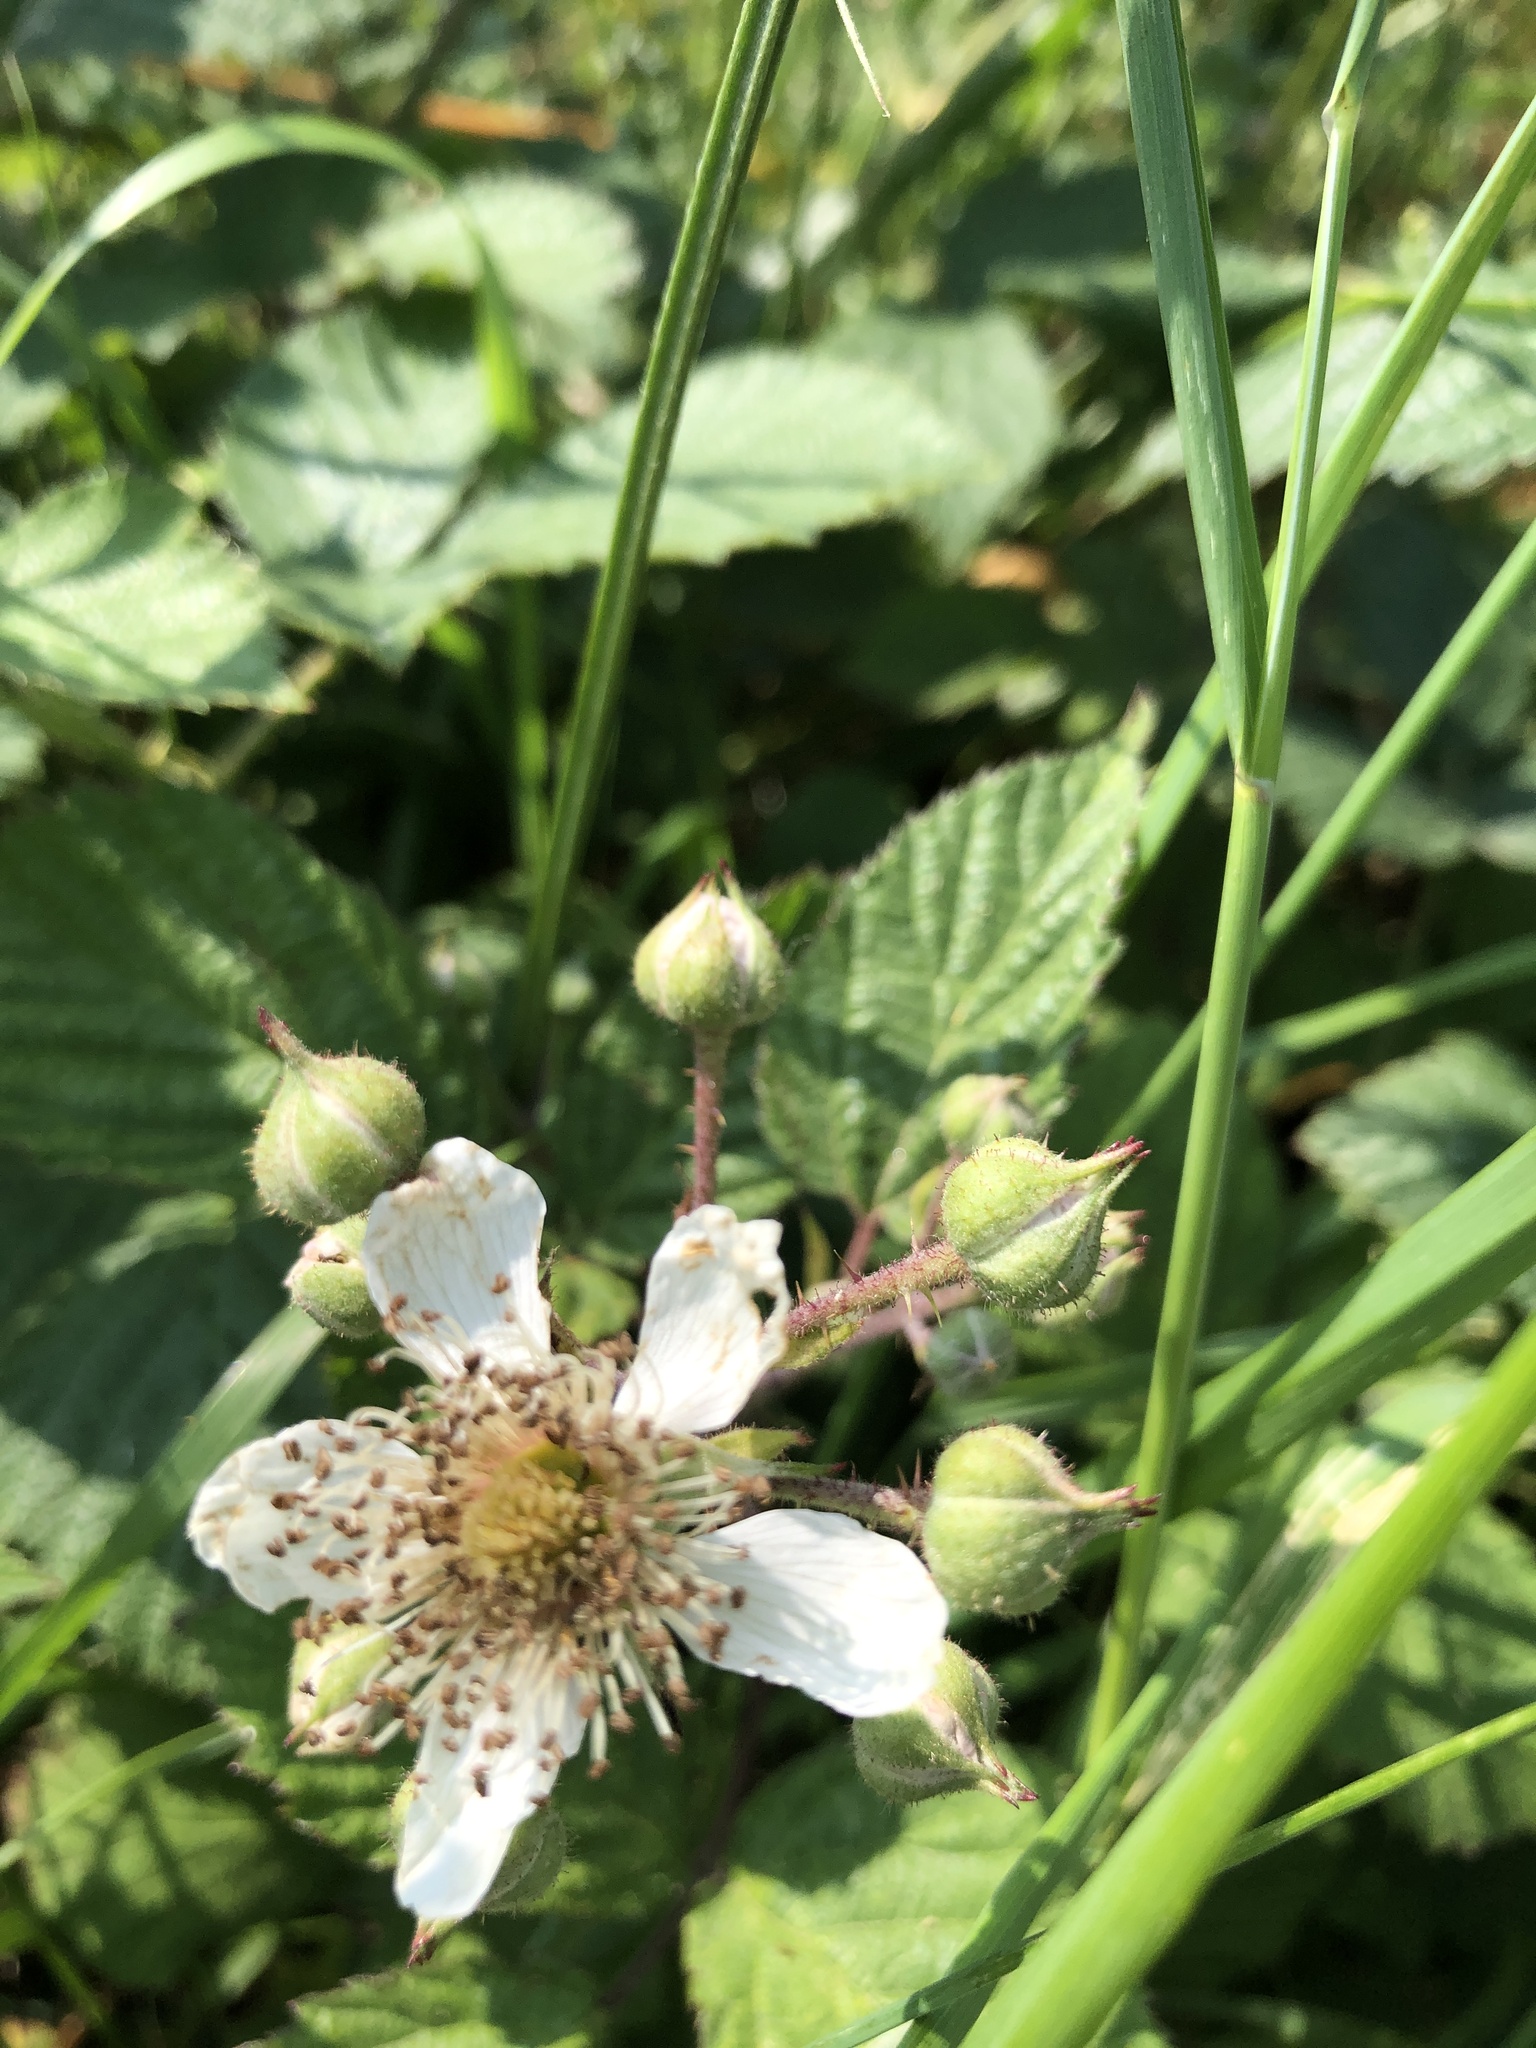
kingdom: Plantae
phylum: Tracheophyta
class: Magnoliopsida
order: Rosales
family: Rosaceae
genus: Rubus
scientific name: Rubus fruticosus
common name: Blackberry, bramble
